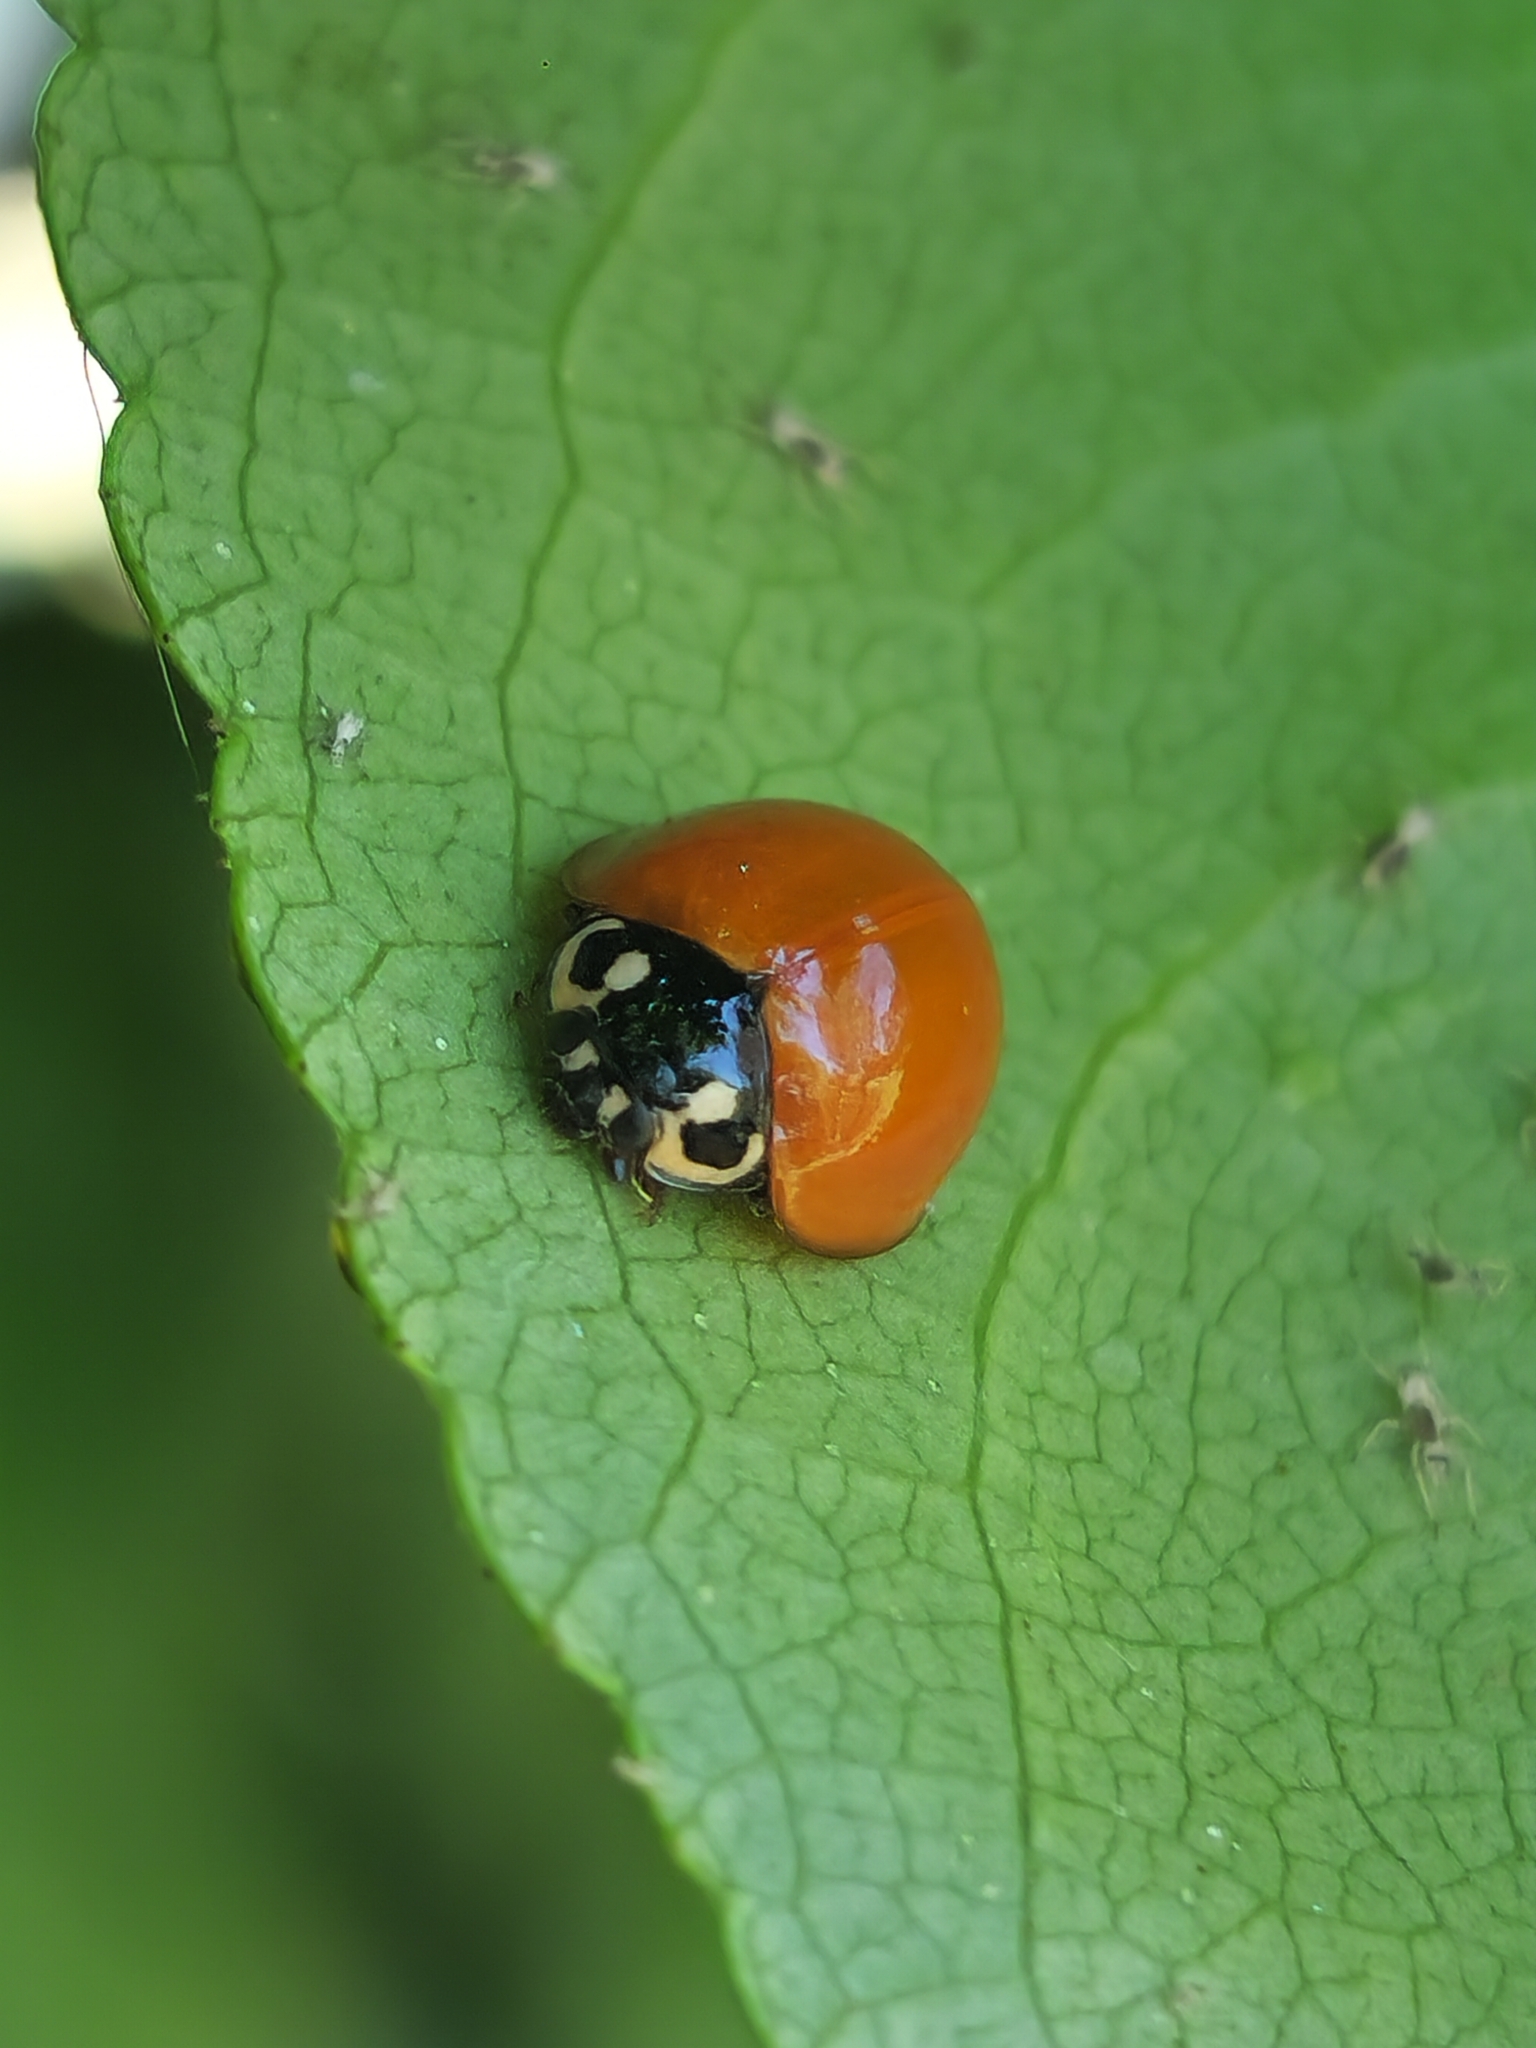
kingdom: Animalia
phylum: Arthropoda
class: Insecta
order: Coleoptera
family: Coccinellidae
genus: Cycloneda
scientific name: Cycloneda sanguinea
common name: Ladybird beetle
